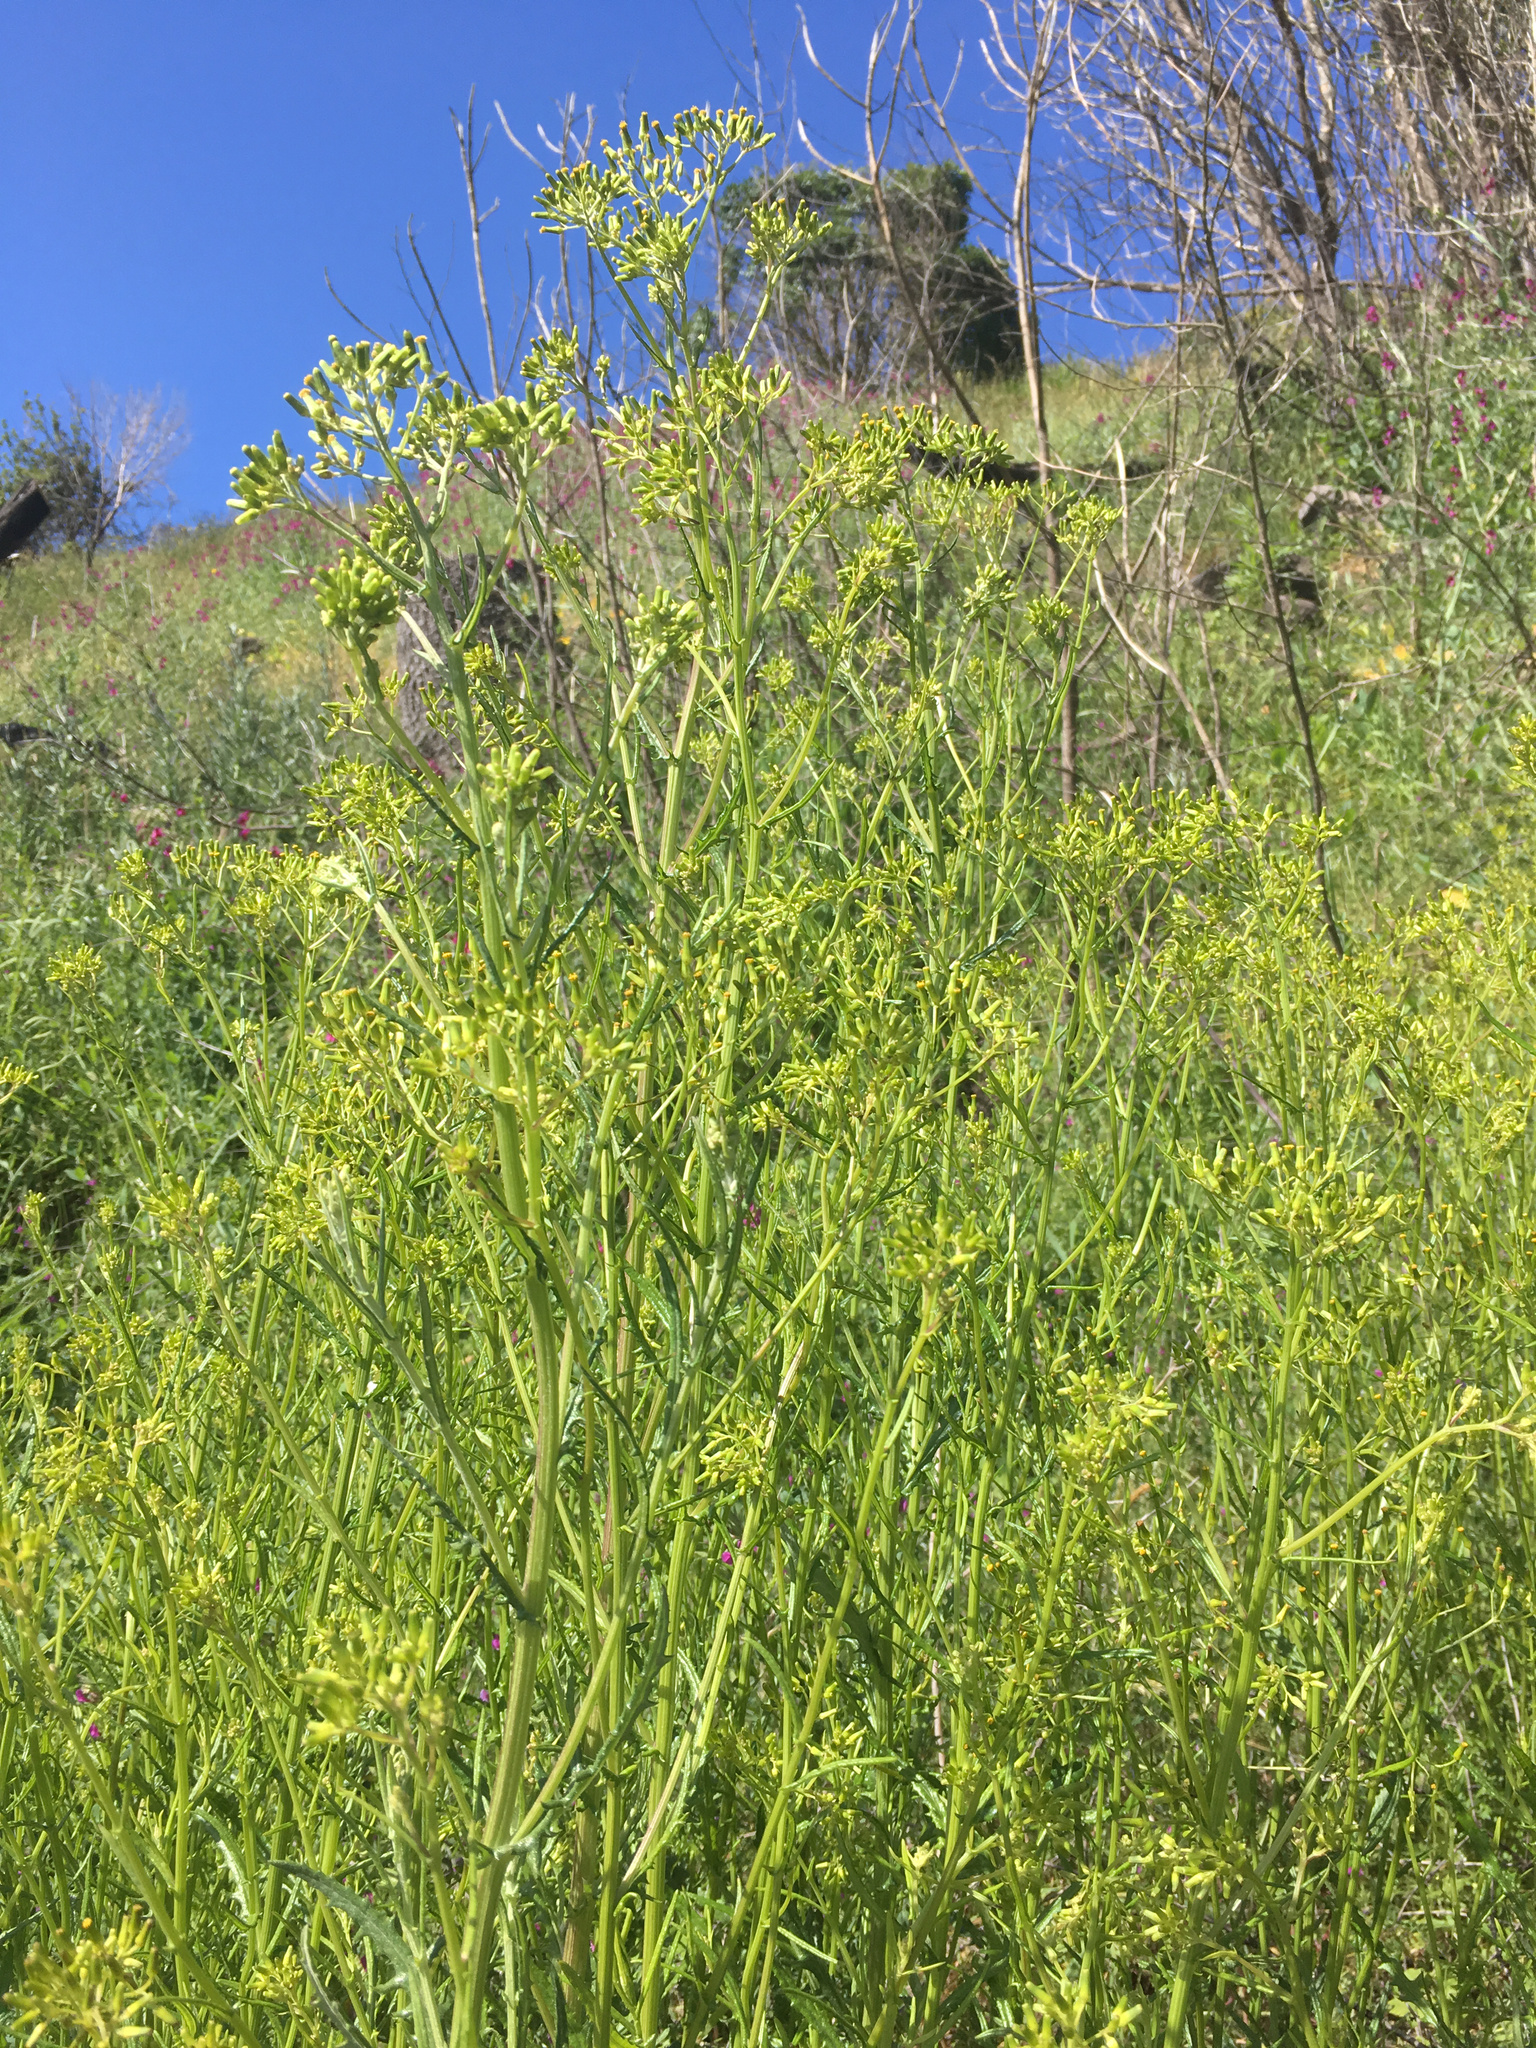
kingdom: Plantae
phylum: Tracheophyta
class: Magnoliopsida
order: Asterales
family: Asteraceae
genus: Senecio
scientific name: Senecio hispidulus
